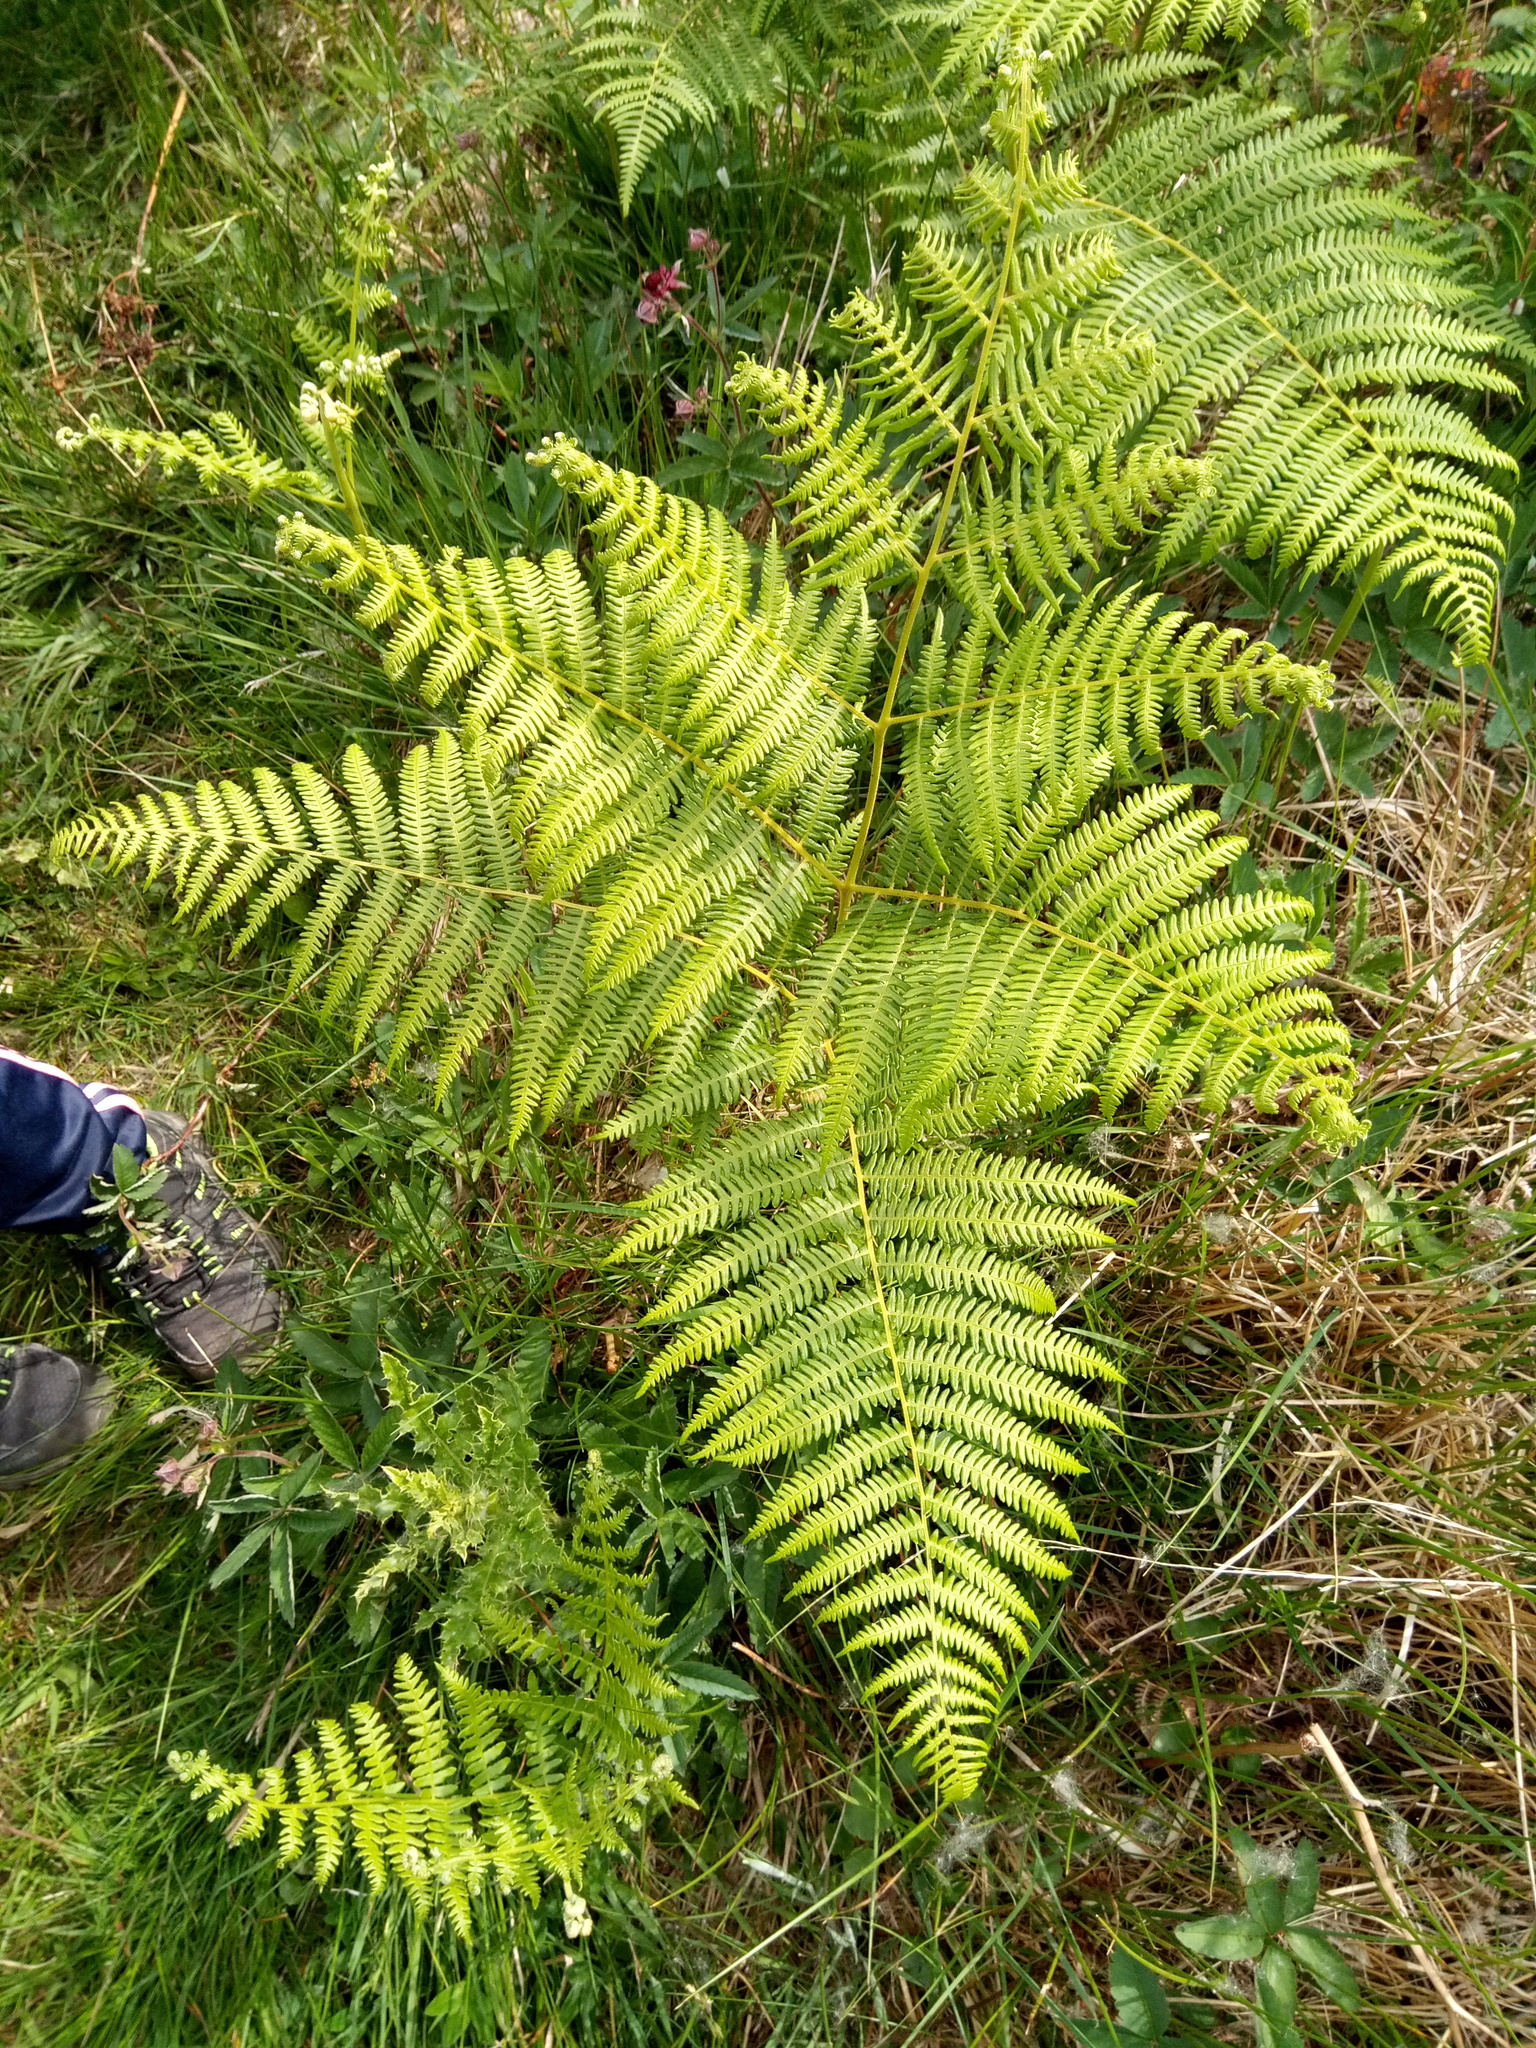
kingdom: Plantae
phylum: Tracheophyta
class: Polypodiopsida
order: Polypodiales
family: Dennstaedtiaceae
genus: Pteridium
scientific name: Pteridium aquilinum
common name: Bracken
